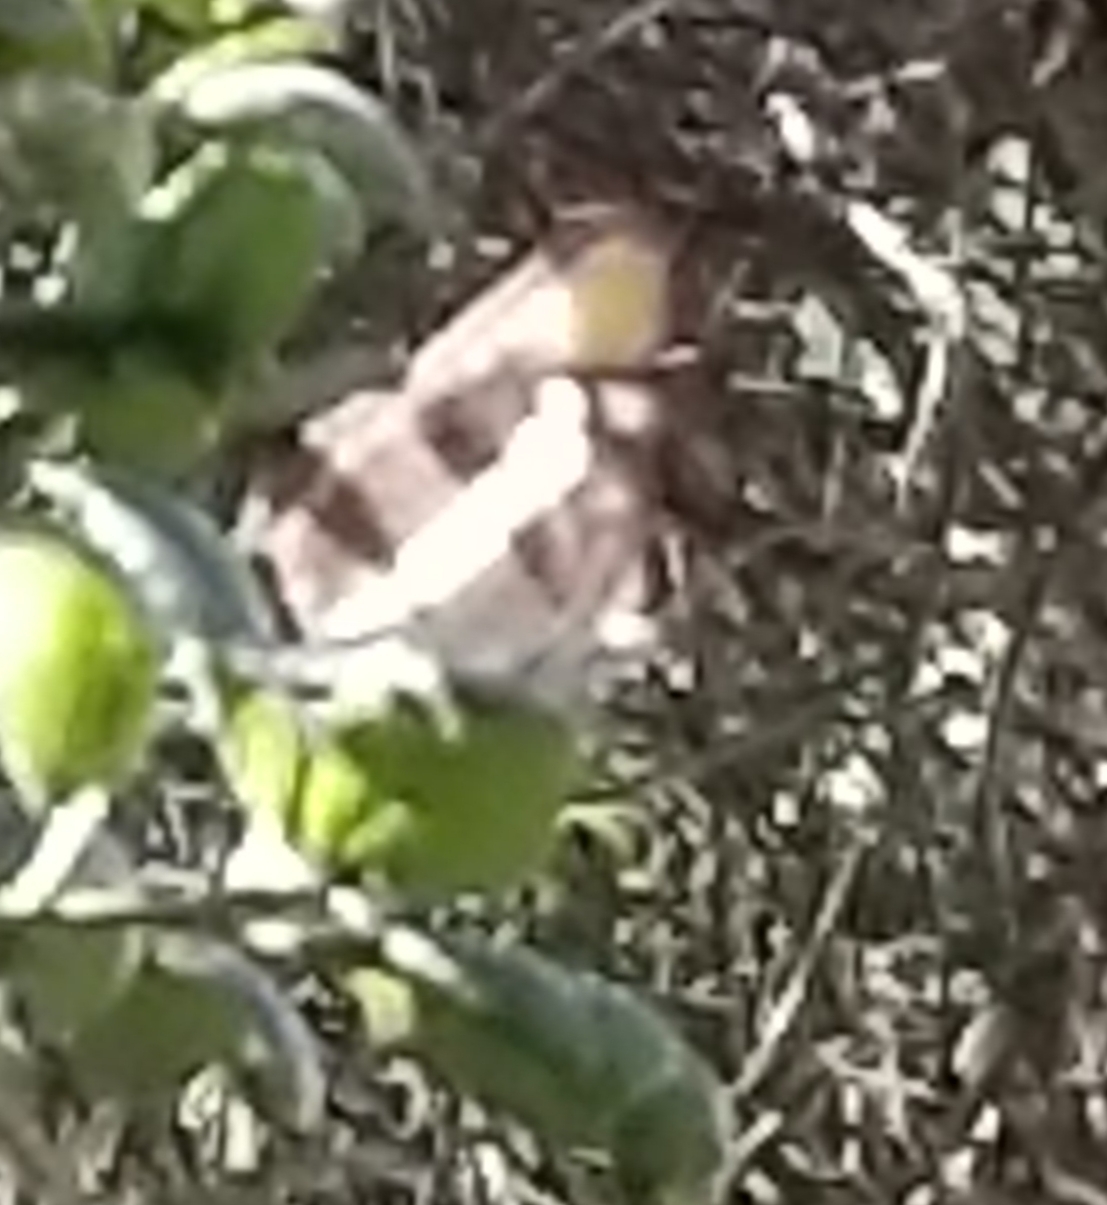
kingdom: Animalia
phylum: Arthropoda
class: Insecta
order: Lepidoptera
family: Nymphalidae
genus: Limenitis
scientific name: Limenitis bredowii
